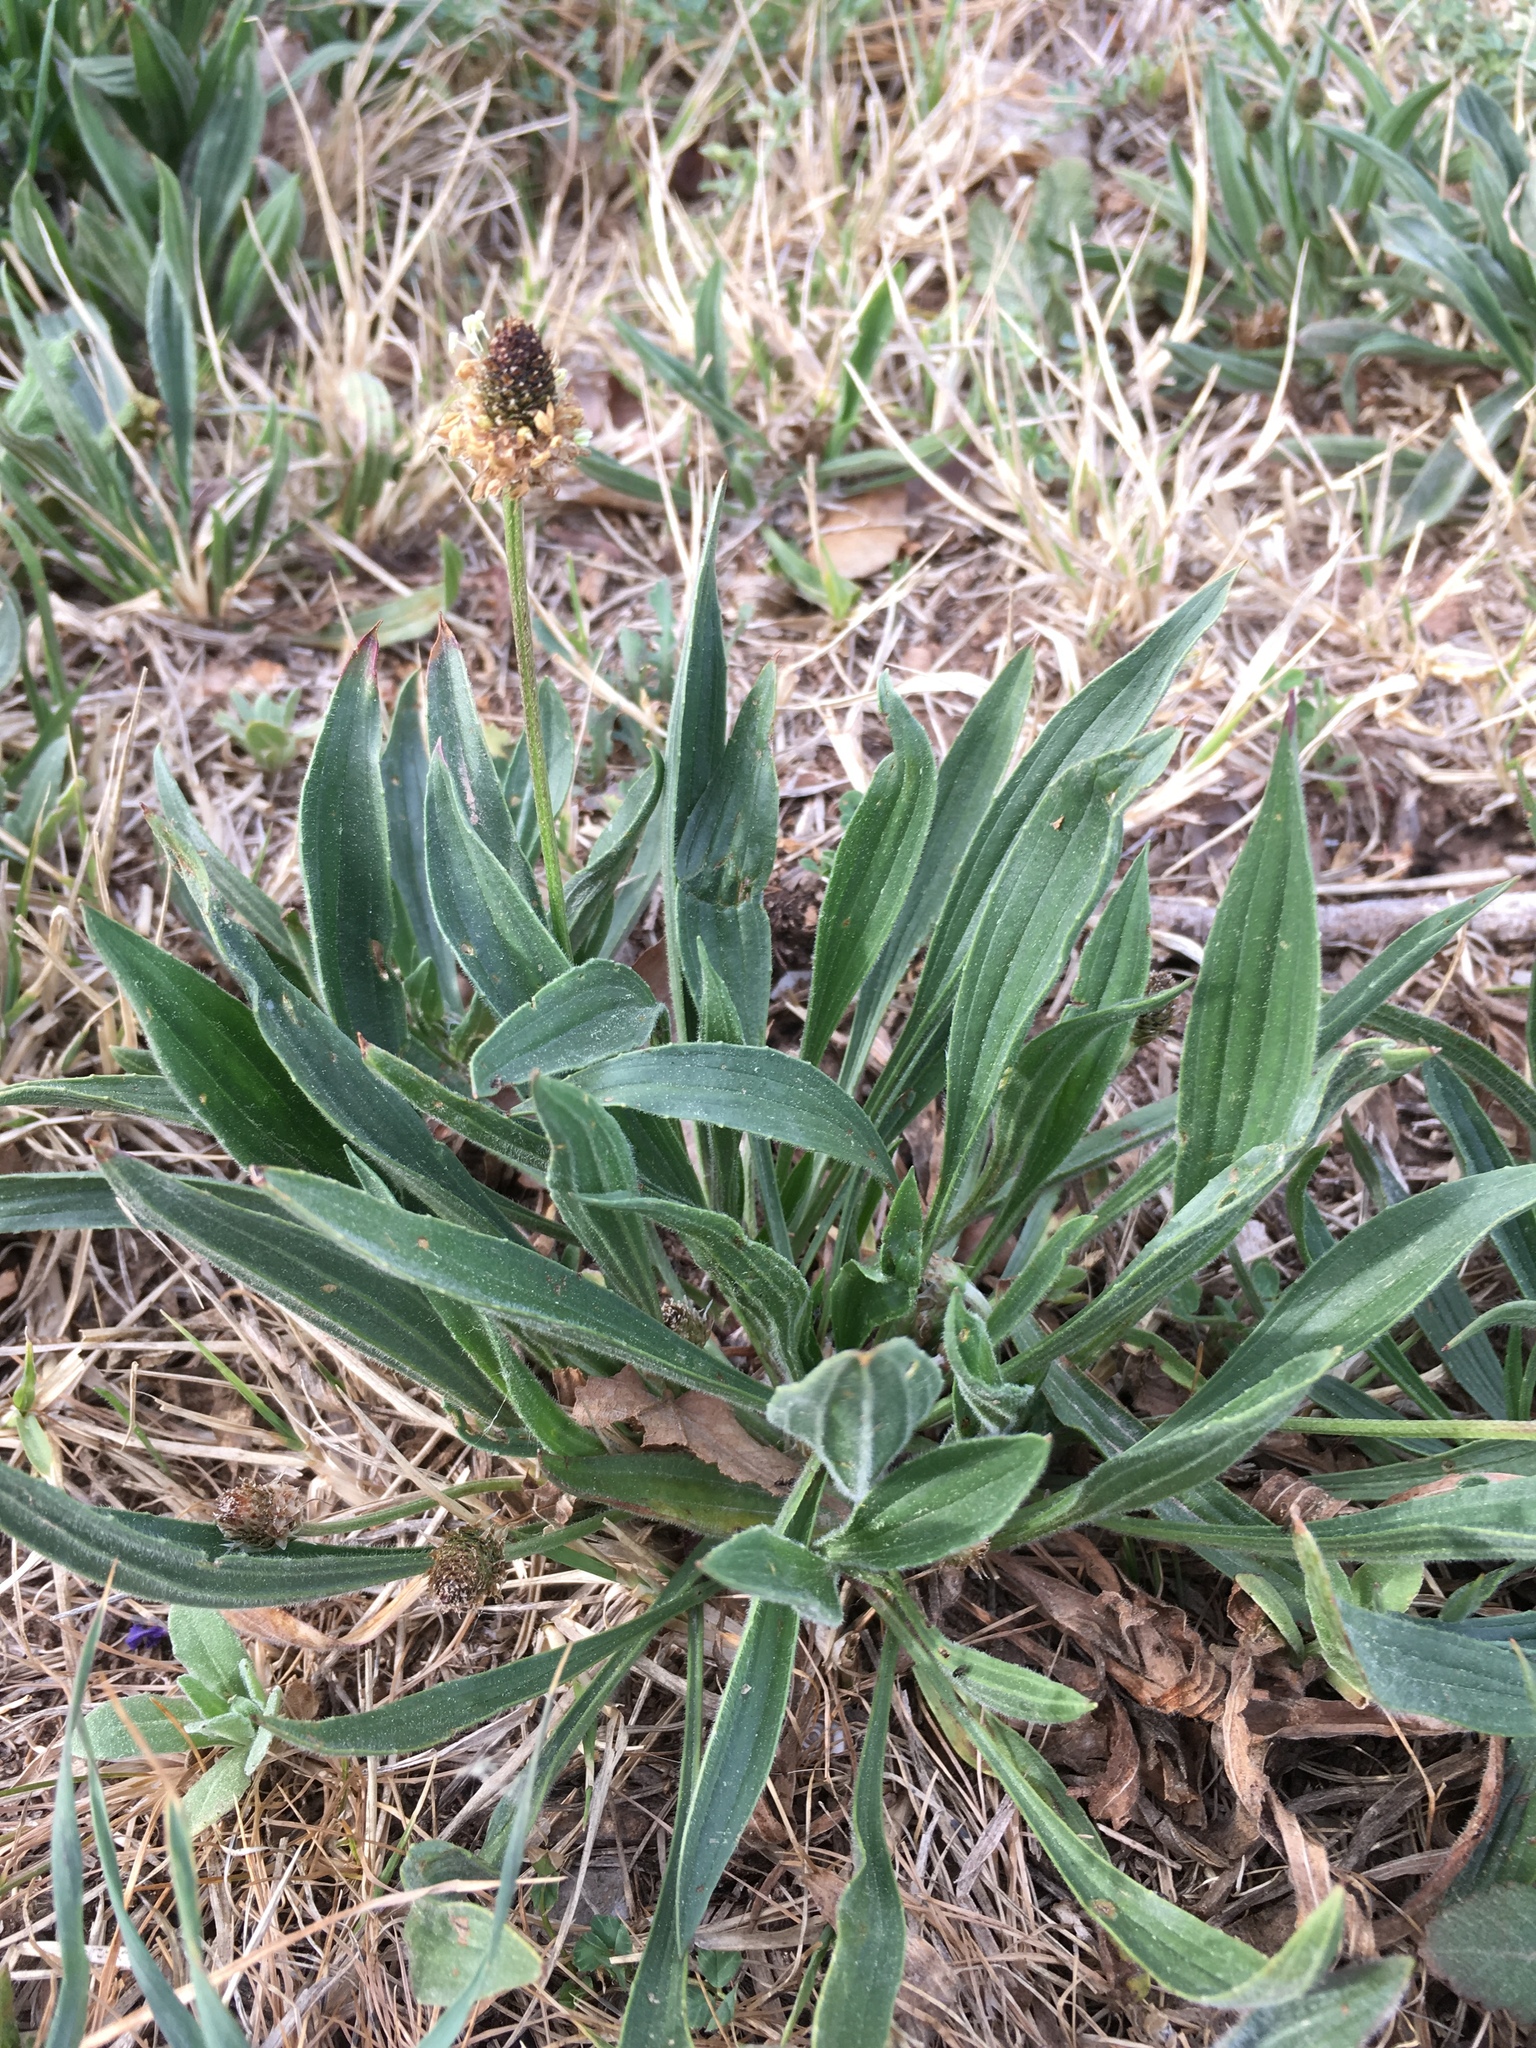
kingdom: Plantae
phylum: Tracheophyta
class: Magnoliopsida
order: Lamiales
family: Plantaginaceae
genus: Plantago
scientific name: Plantago lanceolata
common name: Ribwort plantain
